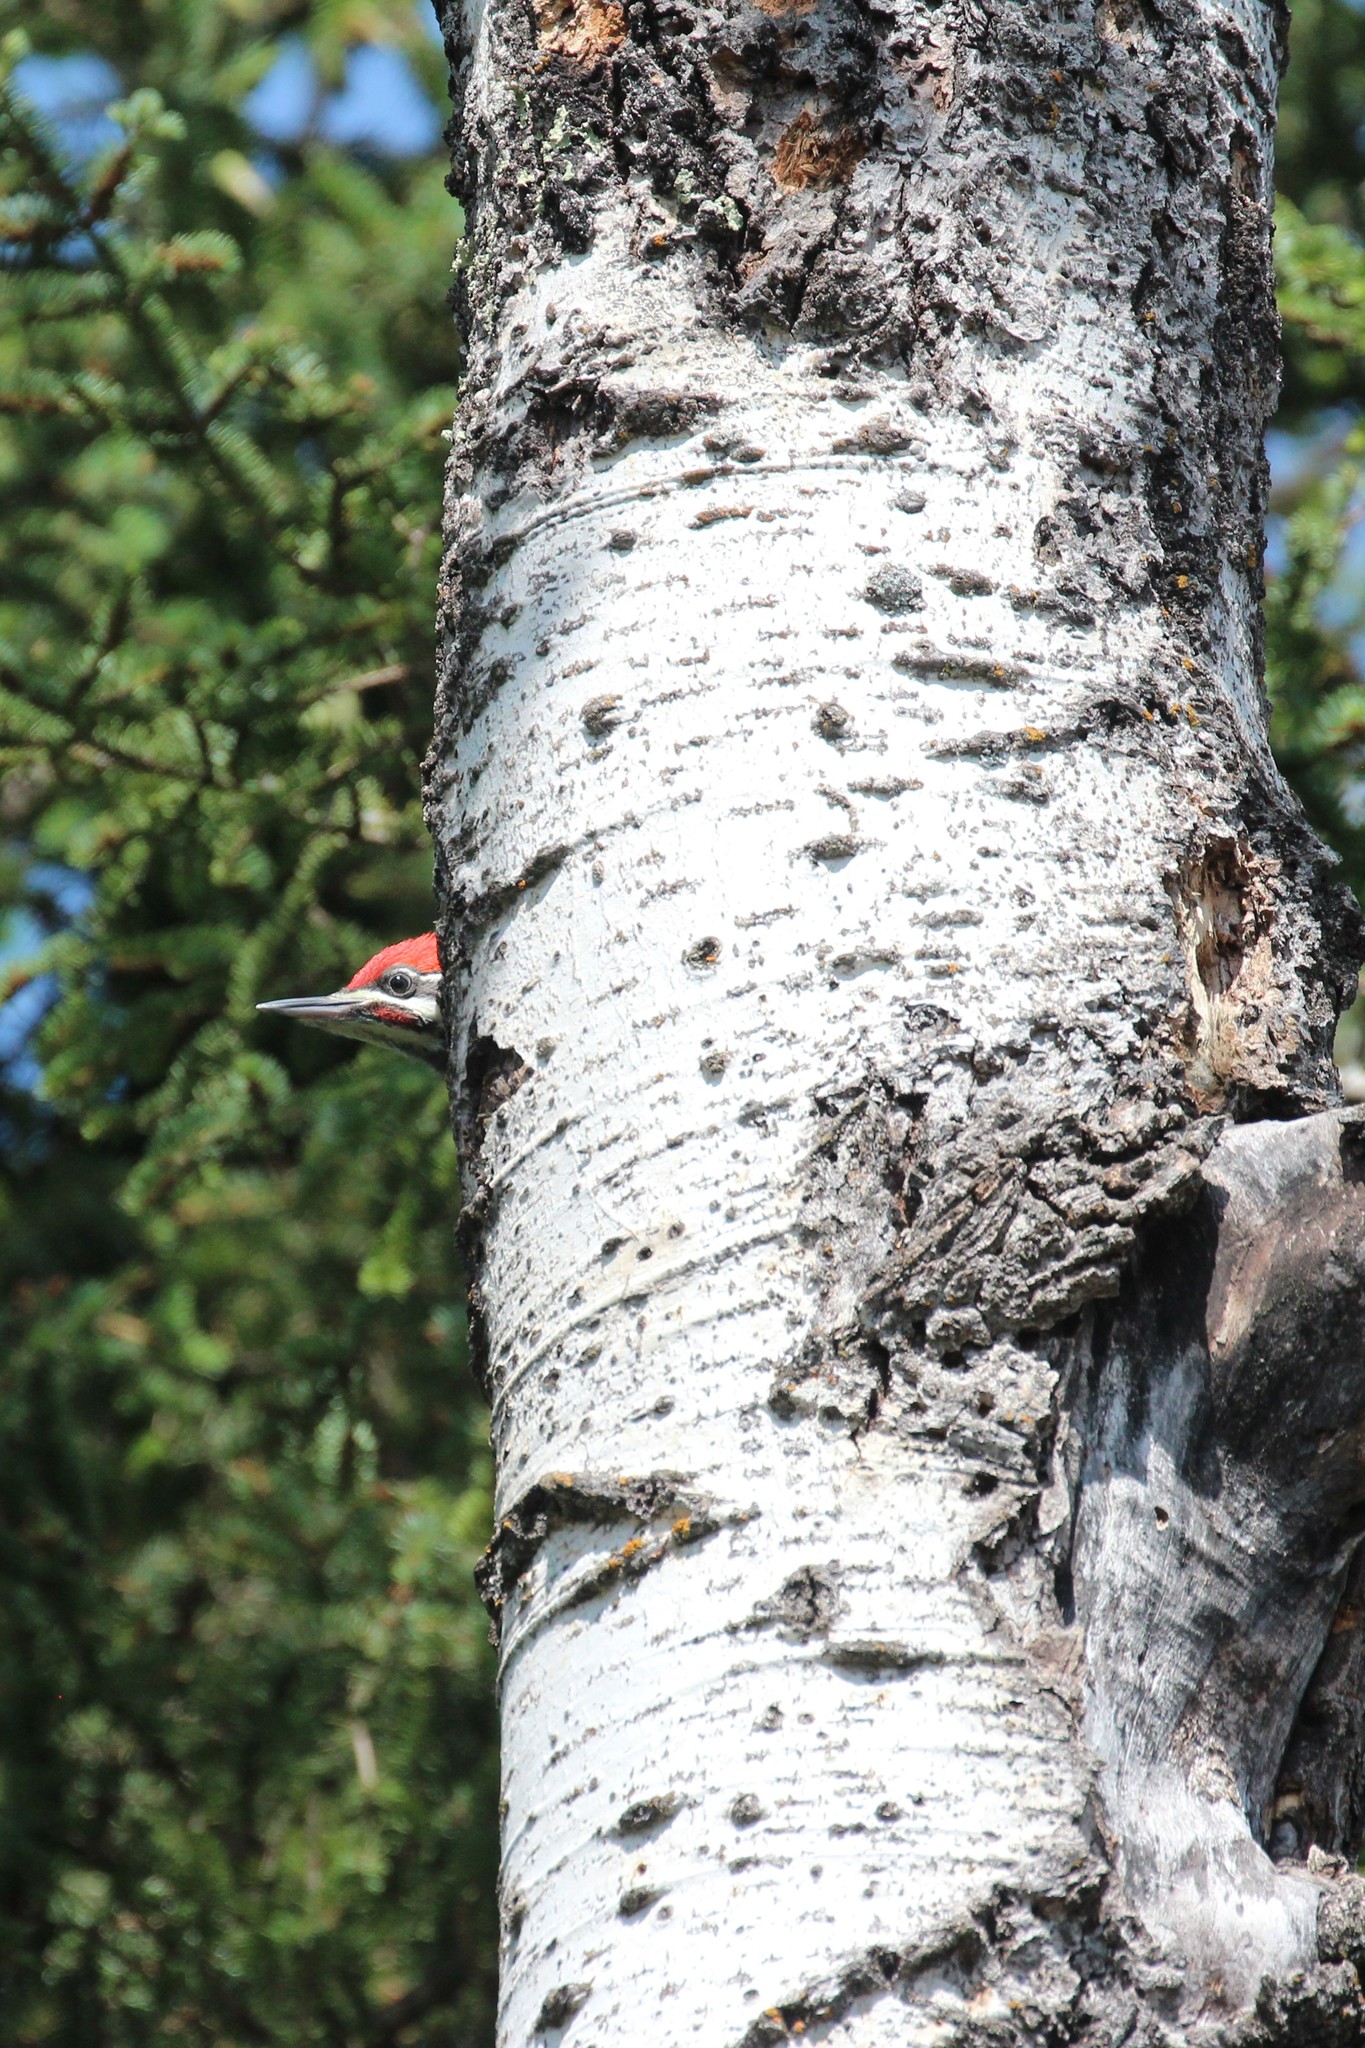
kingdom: Animalia
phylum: Chordata
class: Aves
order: Piciformes
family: Picidae
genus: Dryocopus
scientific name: Dryocopus pileatus
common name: Pileated woodpecker
